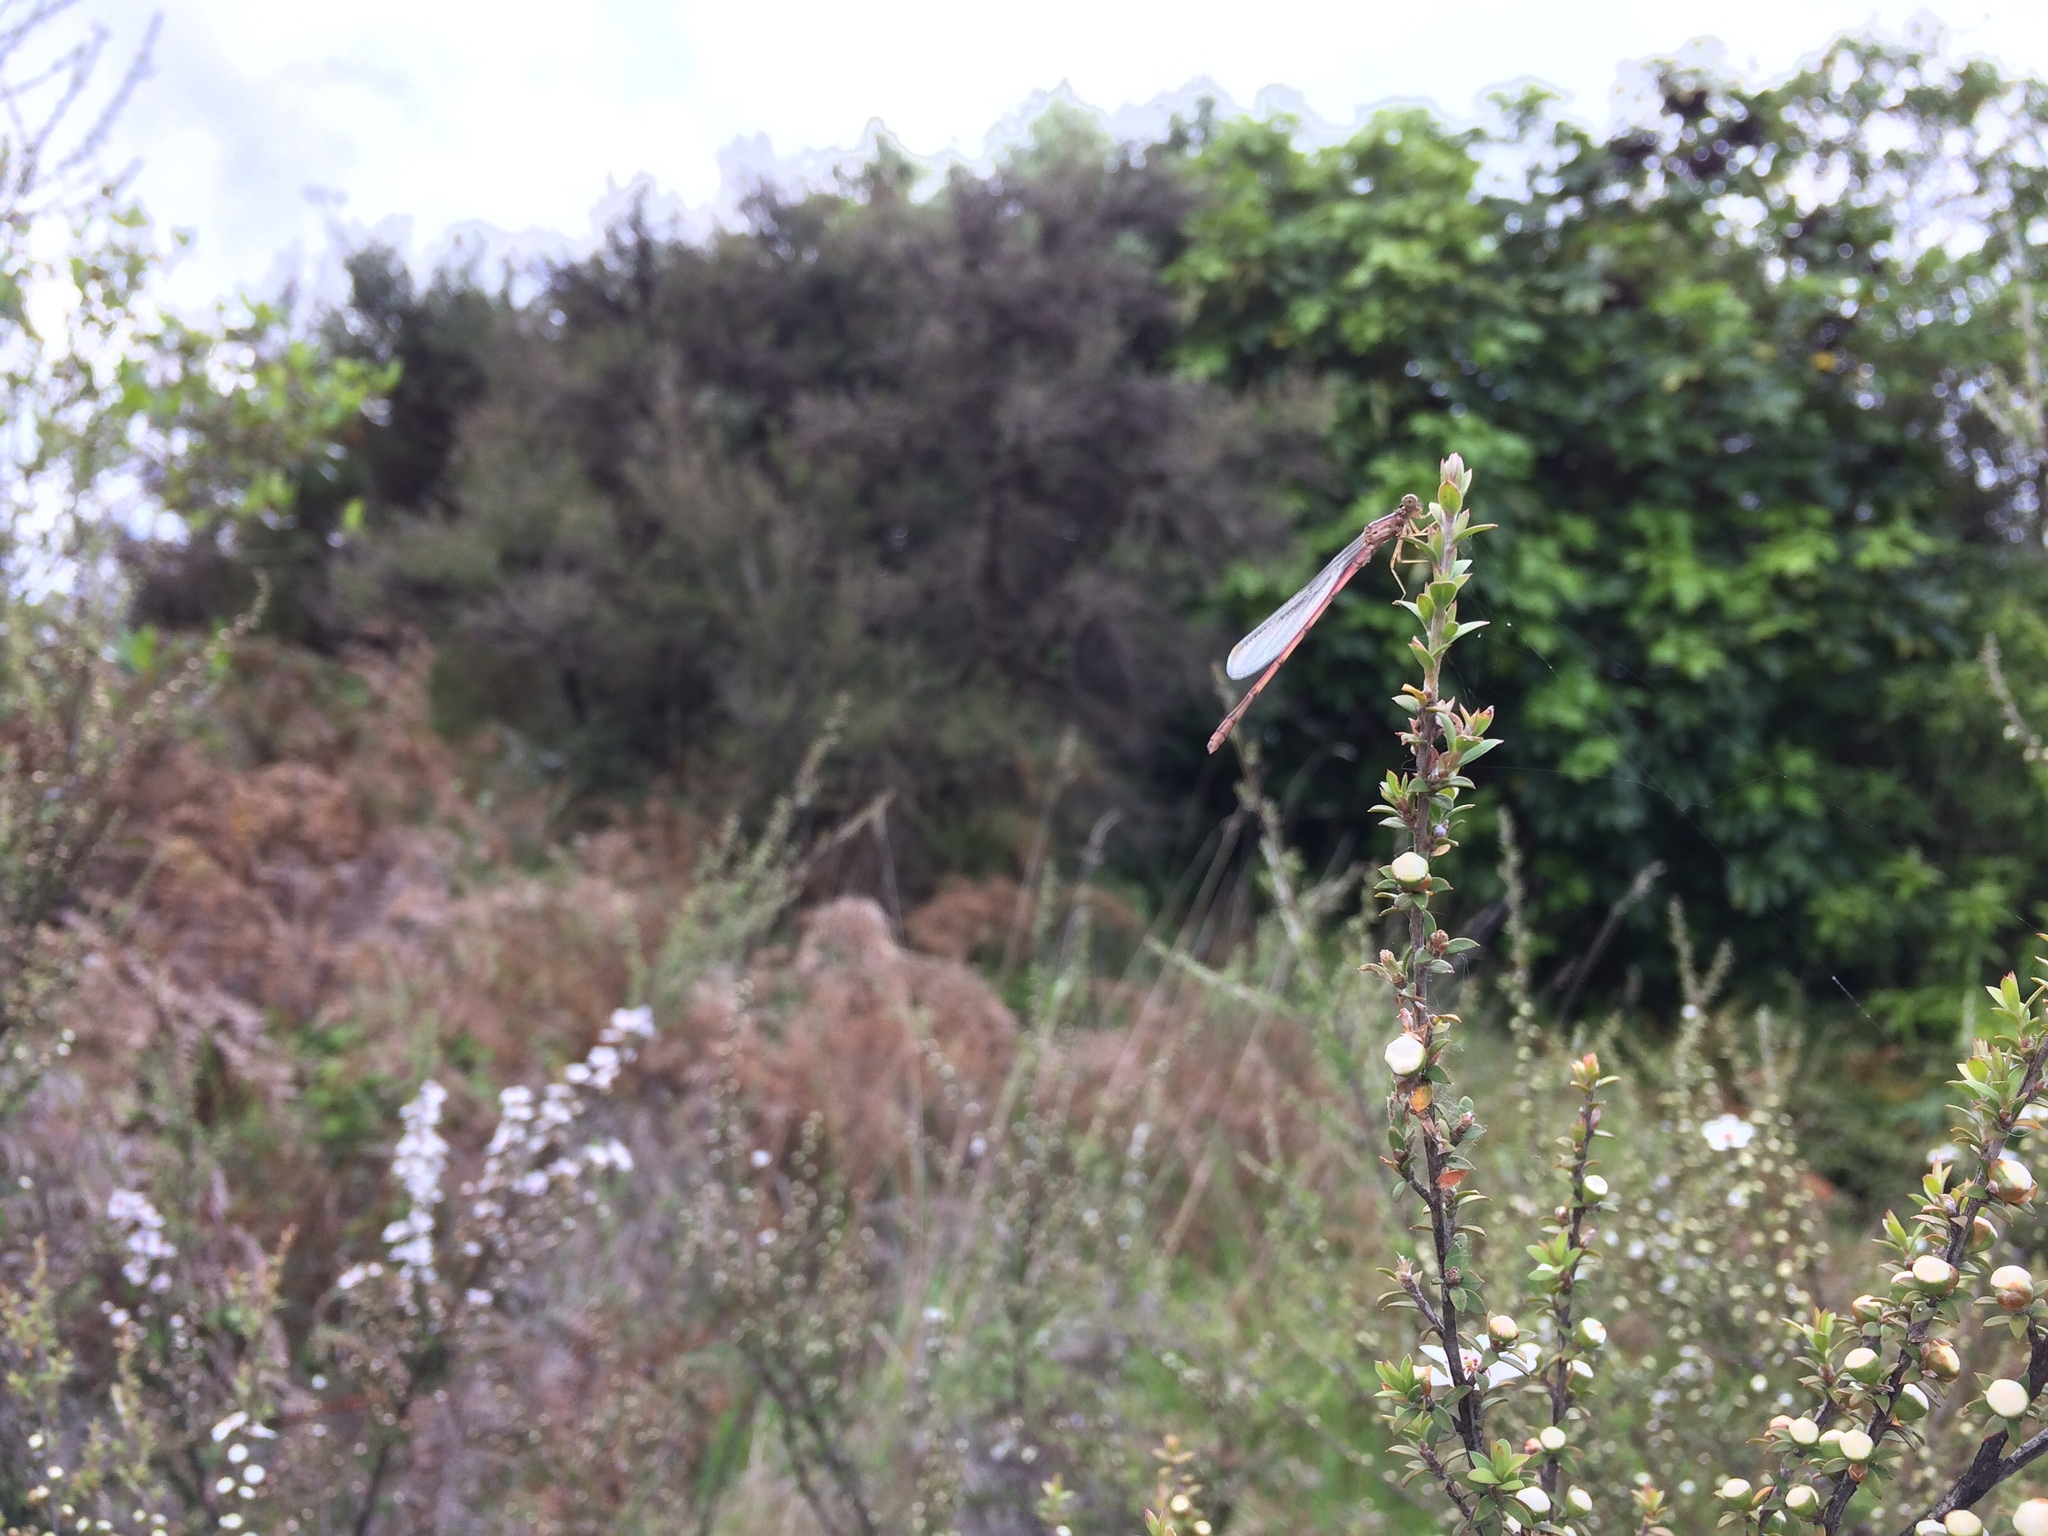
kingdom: Animalia
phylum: Arthropoda
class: Insecta
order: Odonata
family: Coenagrionidae
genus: Xanthocnemis
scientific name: Xanthocnemis zealandica
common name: Common redcoat damselfly
